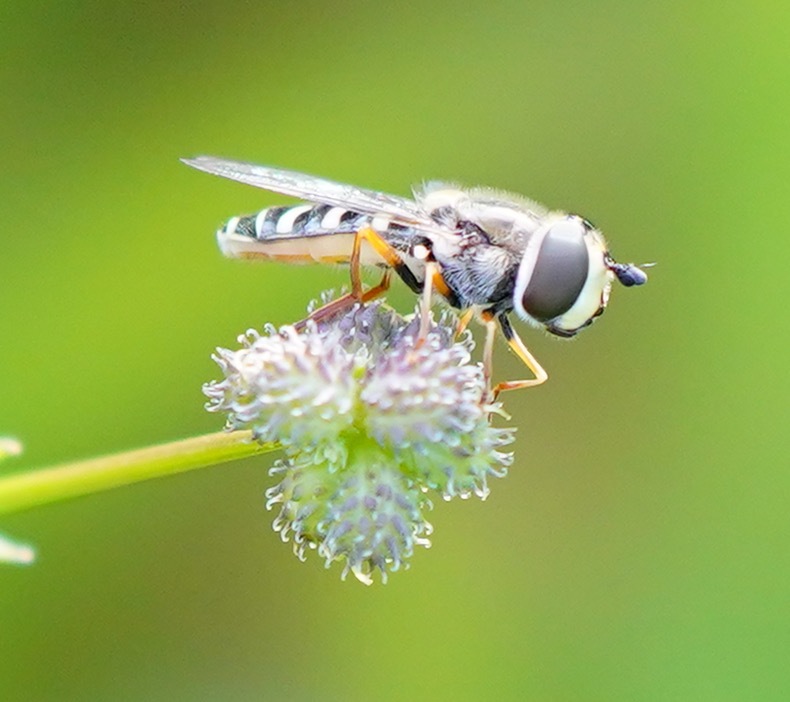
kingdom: Animalia
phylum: Arthropoda
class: Insecta
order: Diptera
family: Syrphidae
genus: Eupeodes
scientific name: Eupeodes volucris
